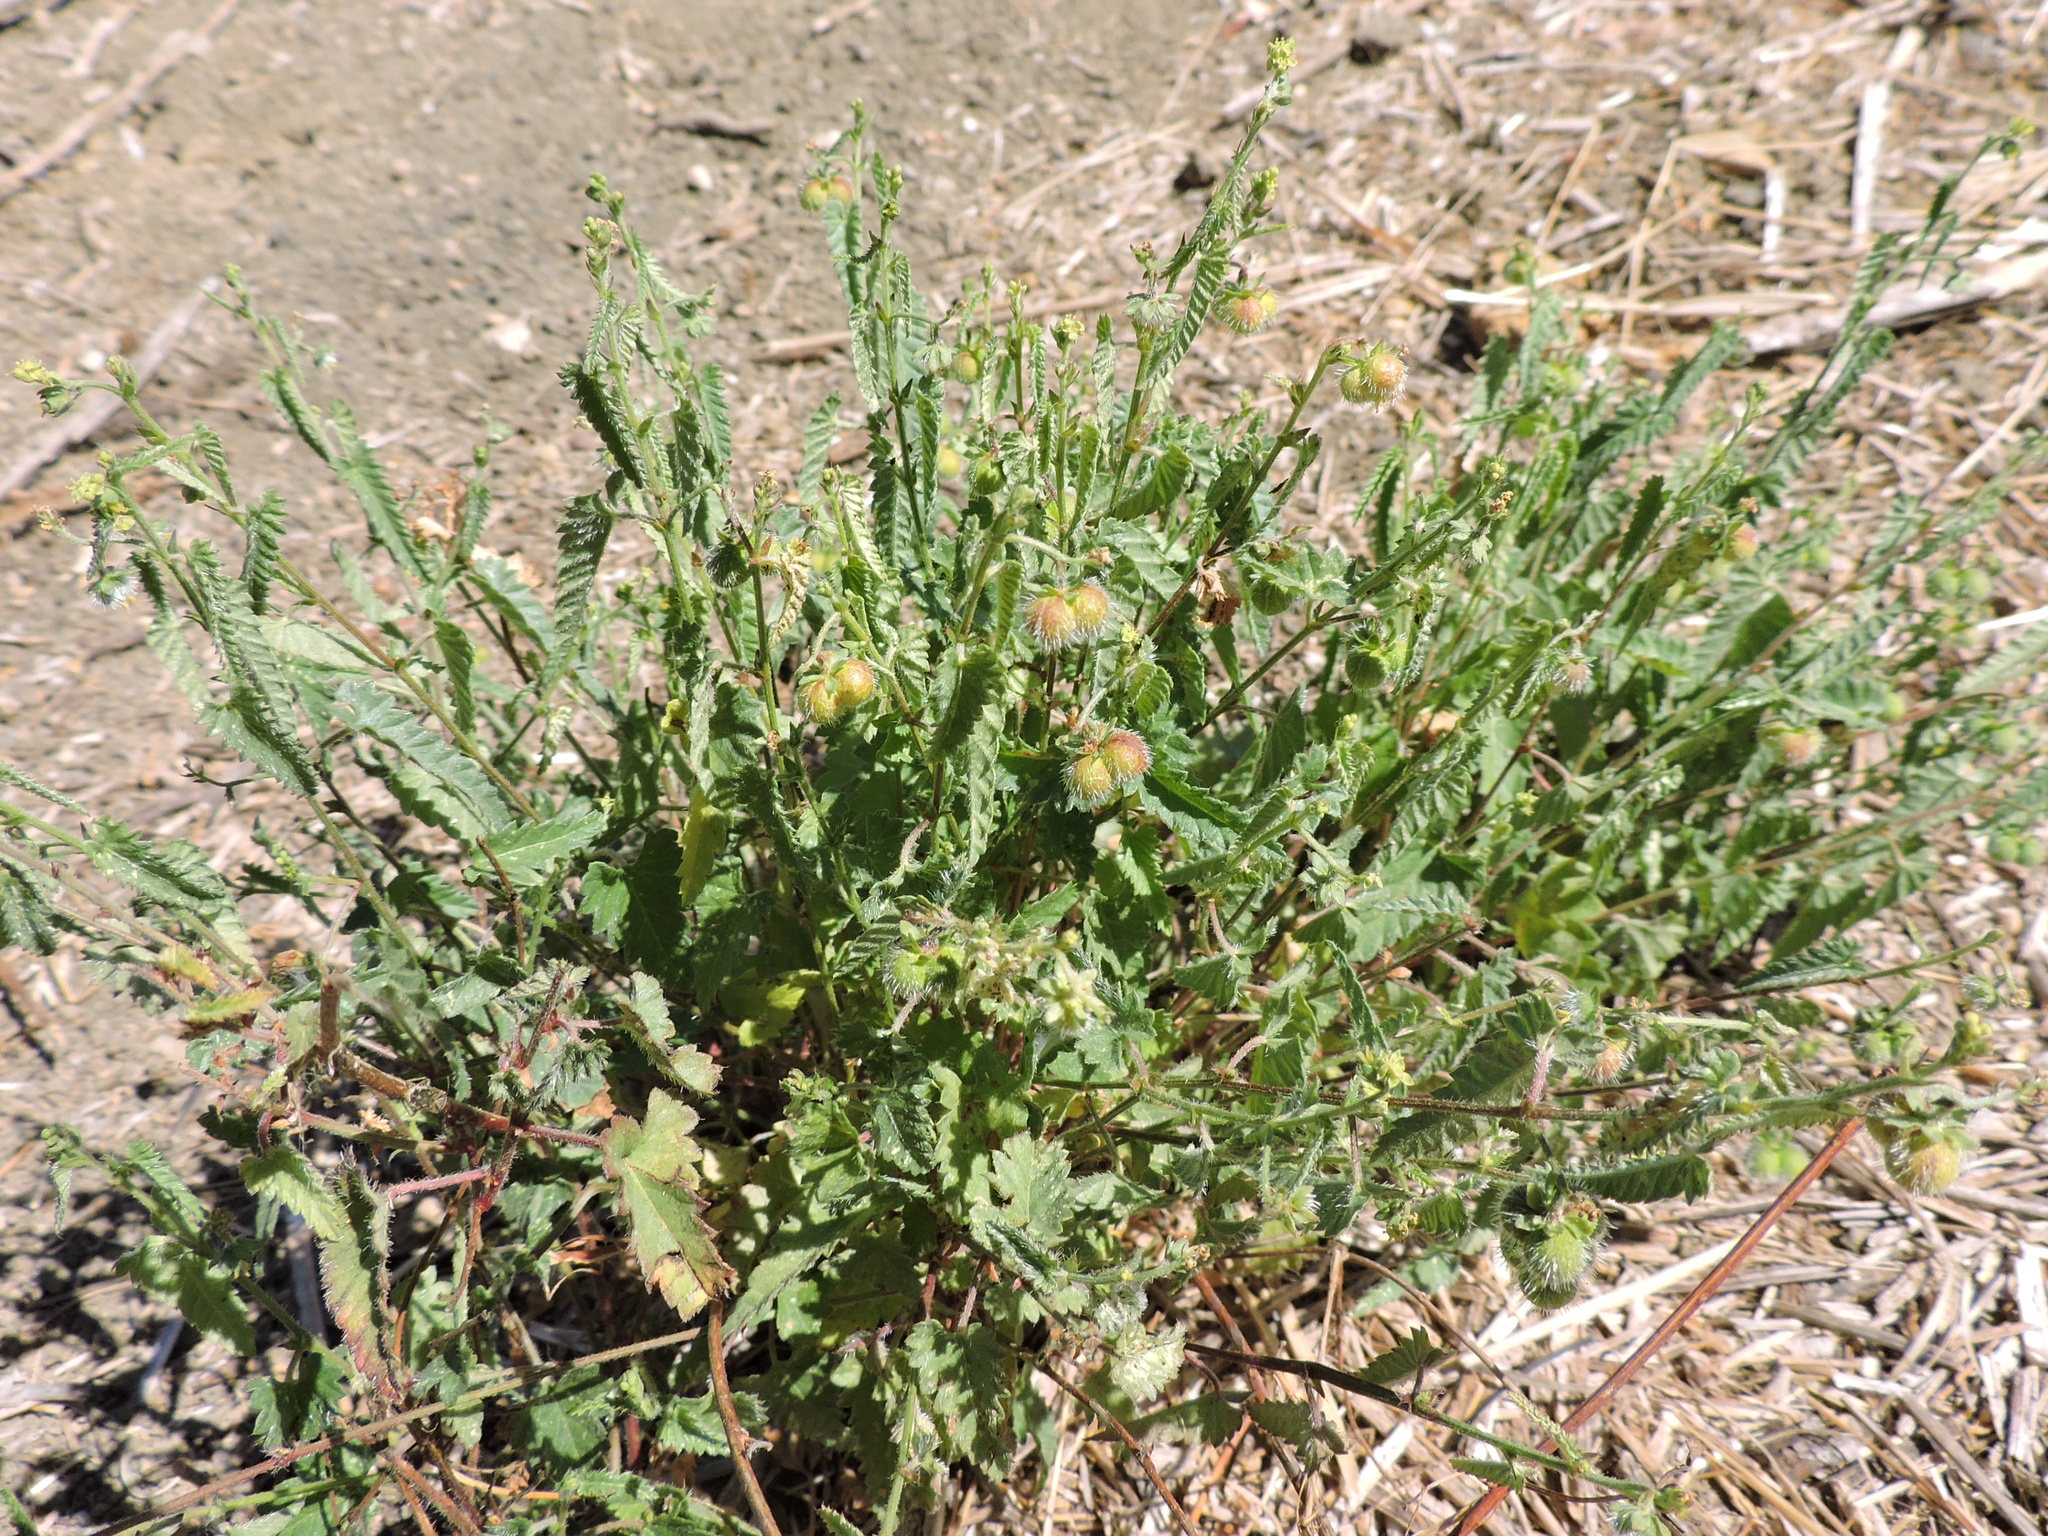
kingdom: Plantae
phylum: Tracheophyta
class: Magnoliopsida
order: Malpighiales
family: Euphorbiaceae
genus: Tragia
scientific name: Tragia ramosa
